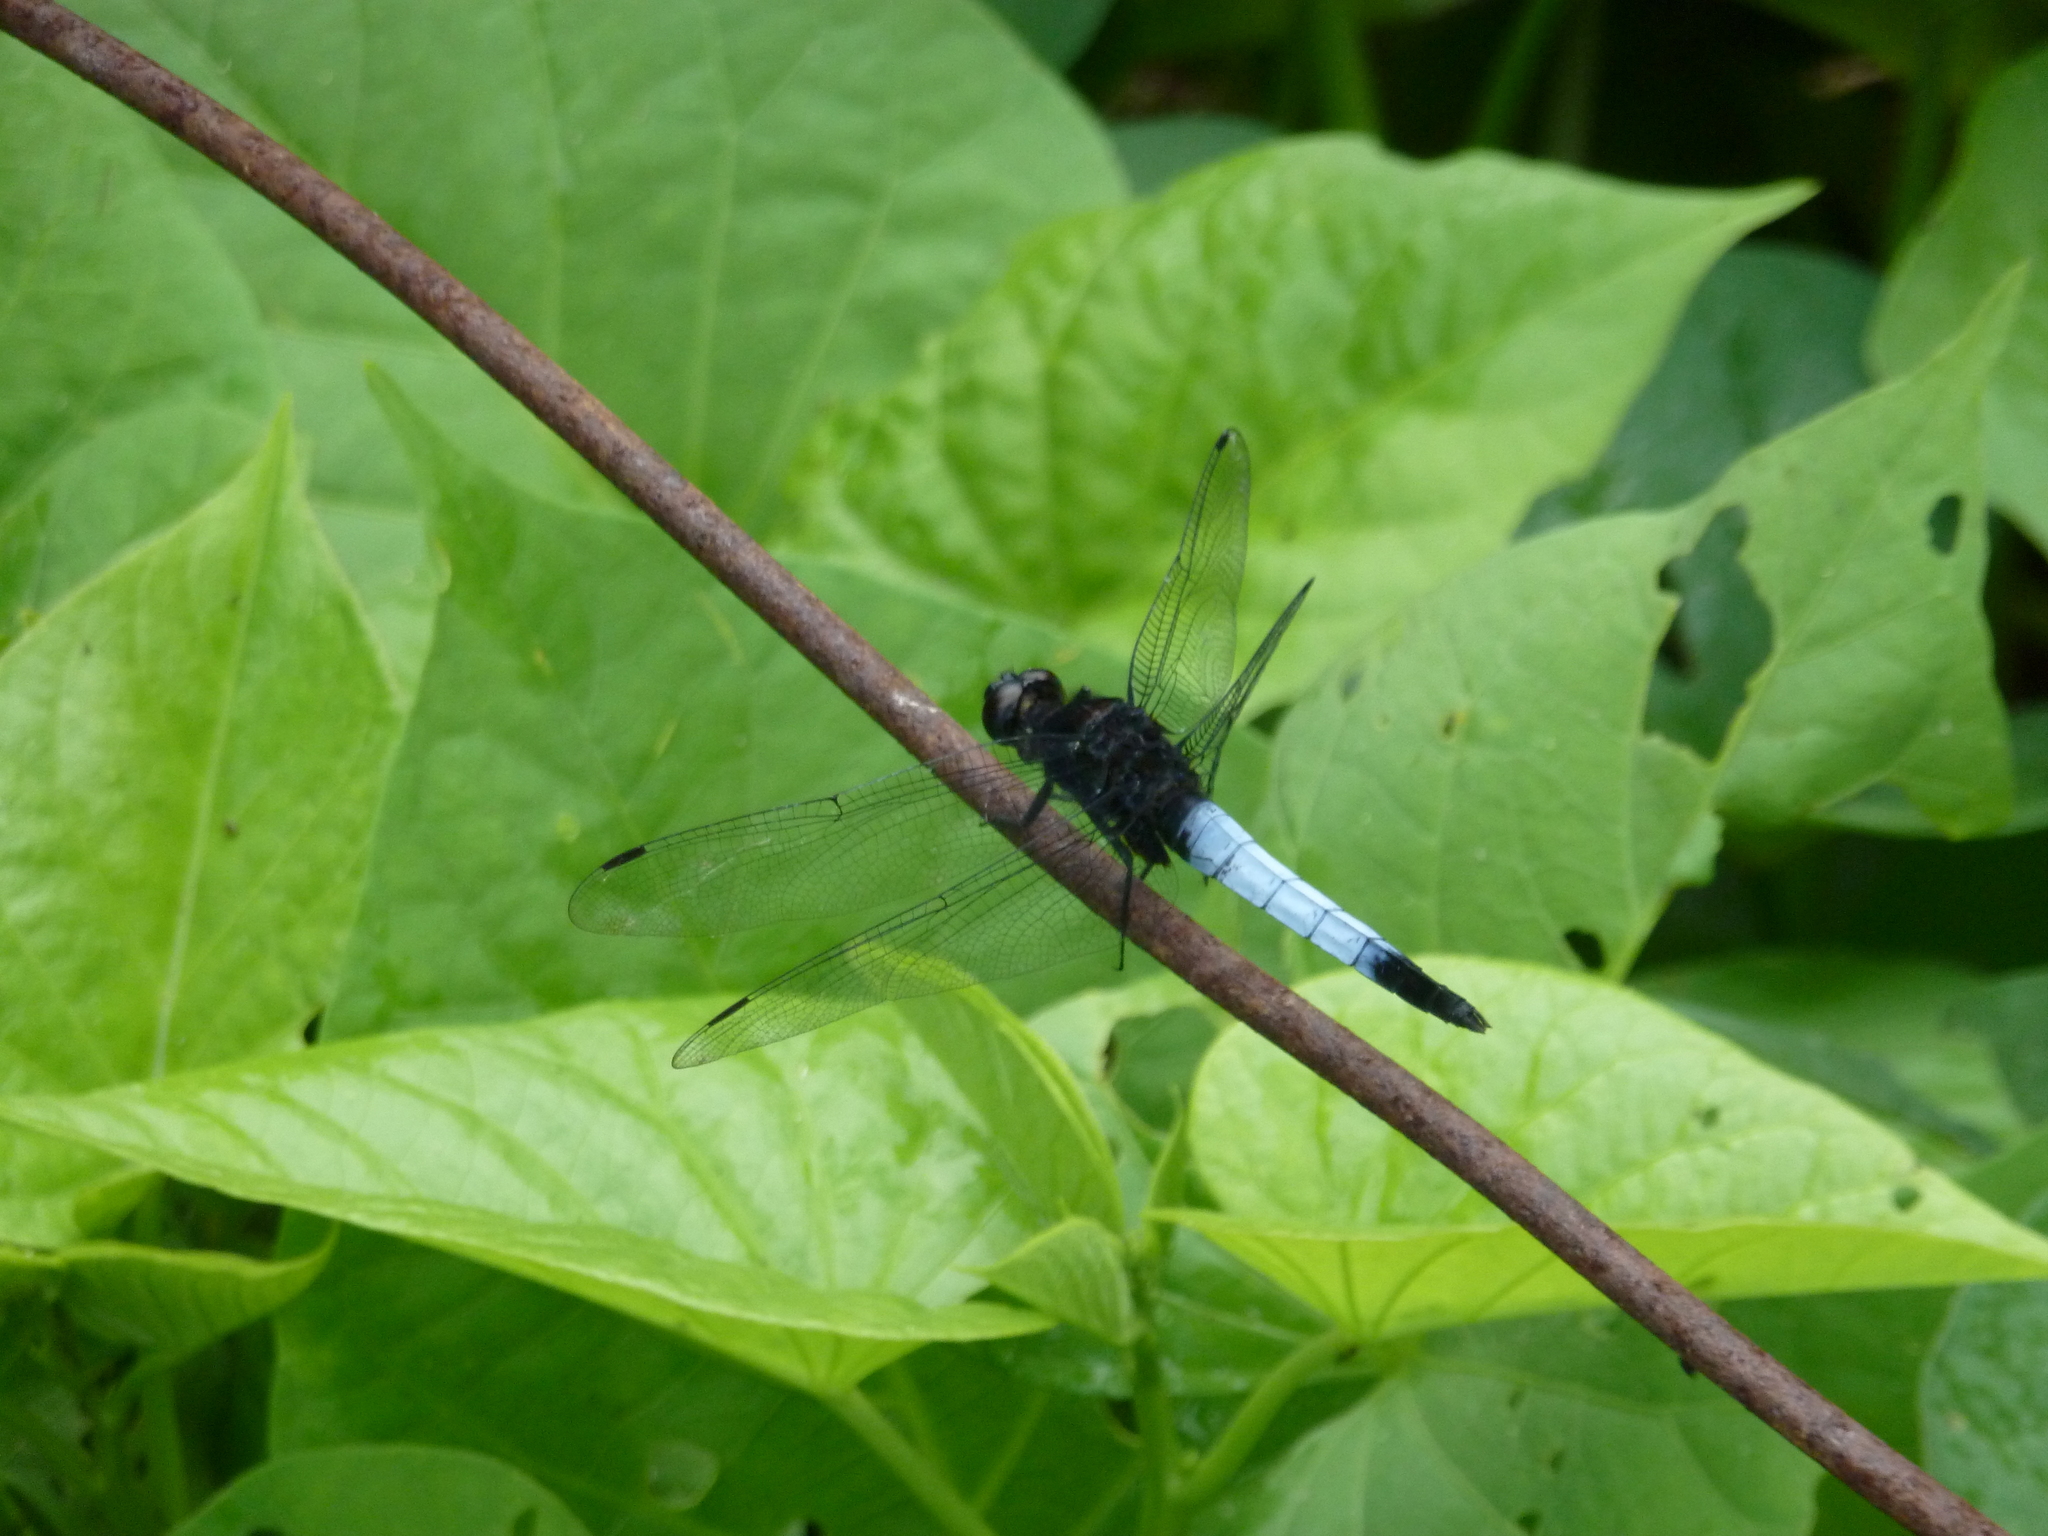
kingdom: Animalia
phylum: Arthropoda
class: Insecta
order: Odonata
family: Libellulidae
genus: Orthetrum
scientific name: Orthetrum triangulare
